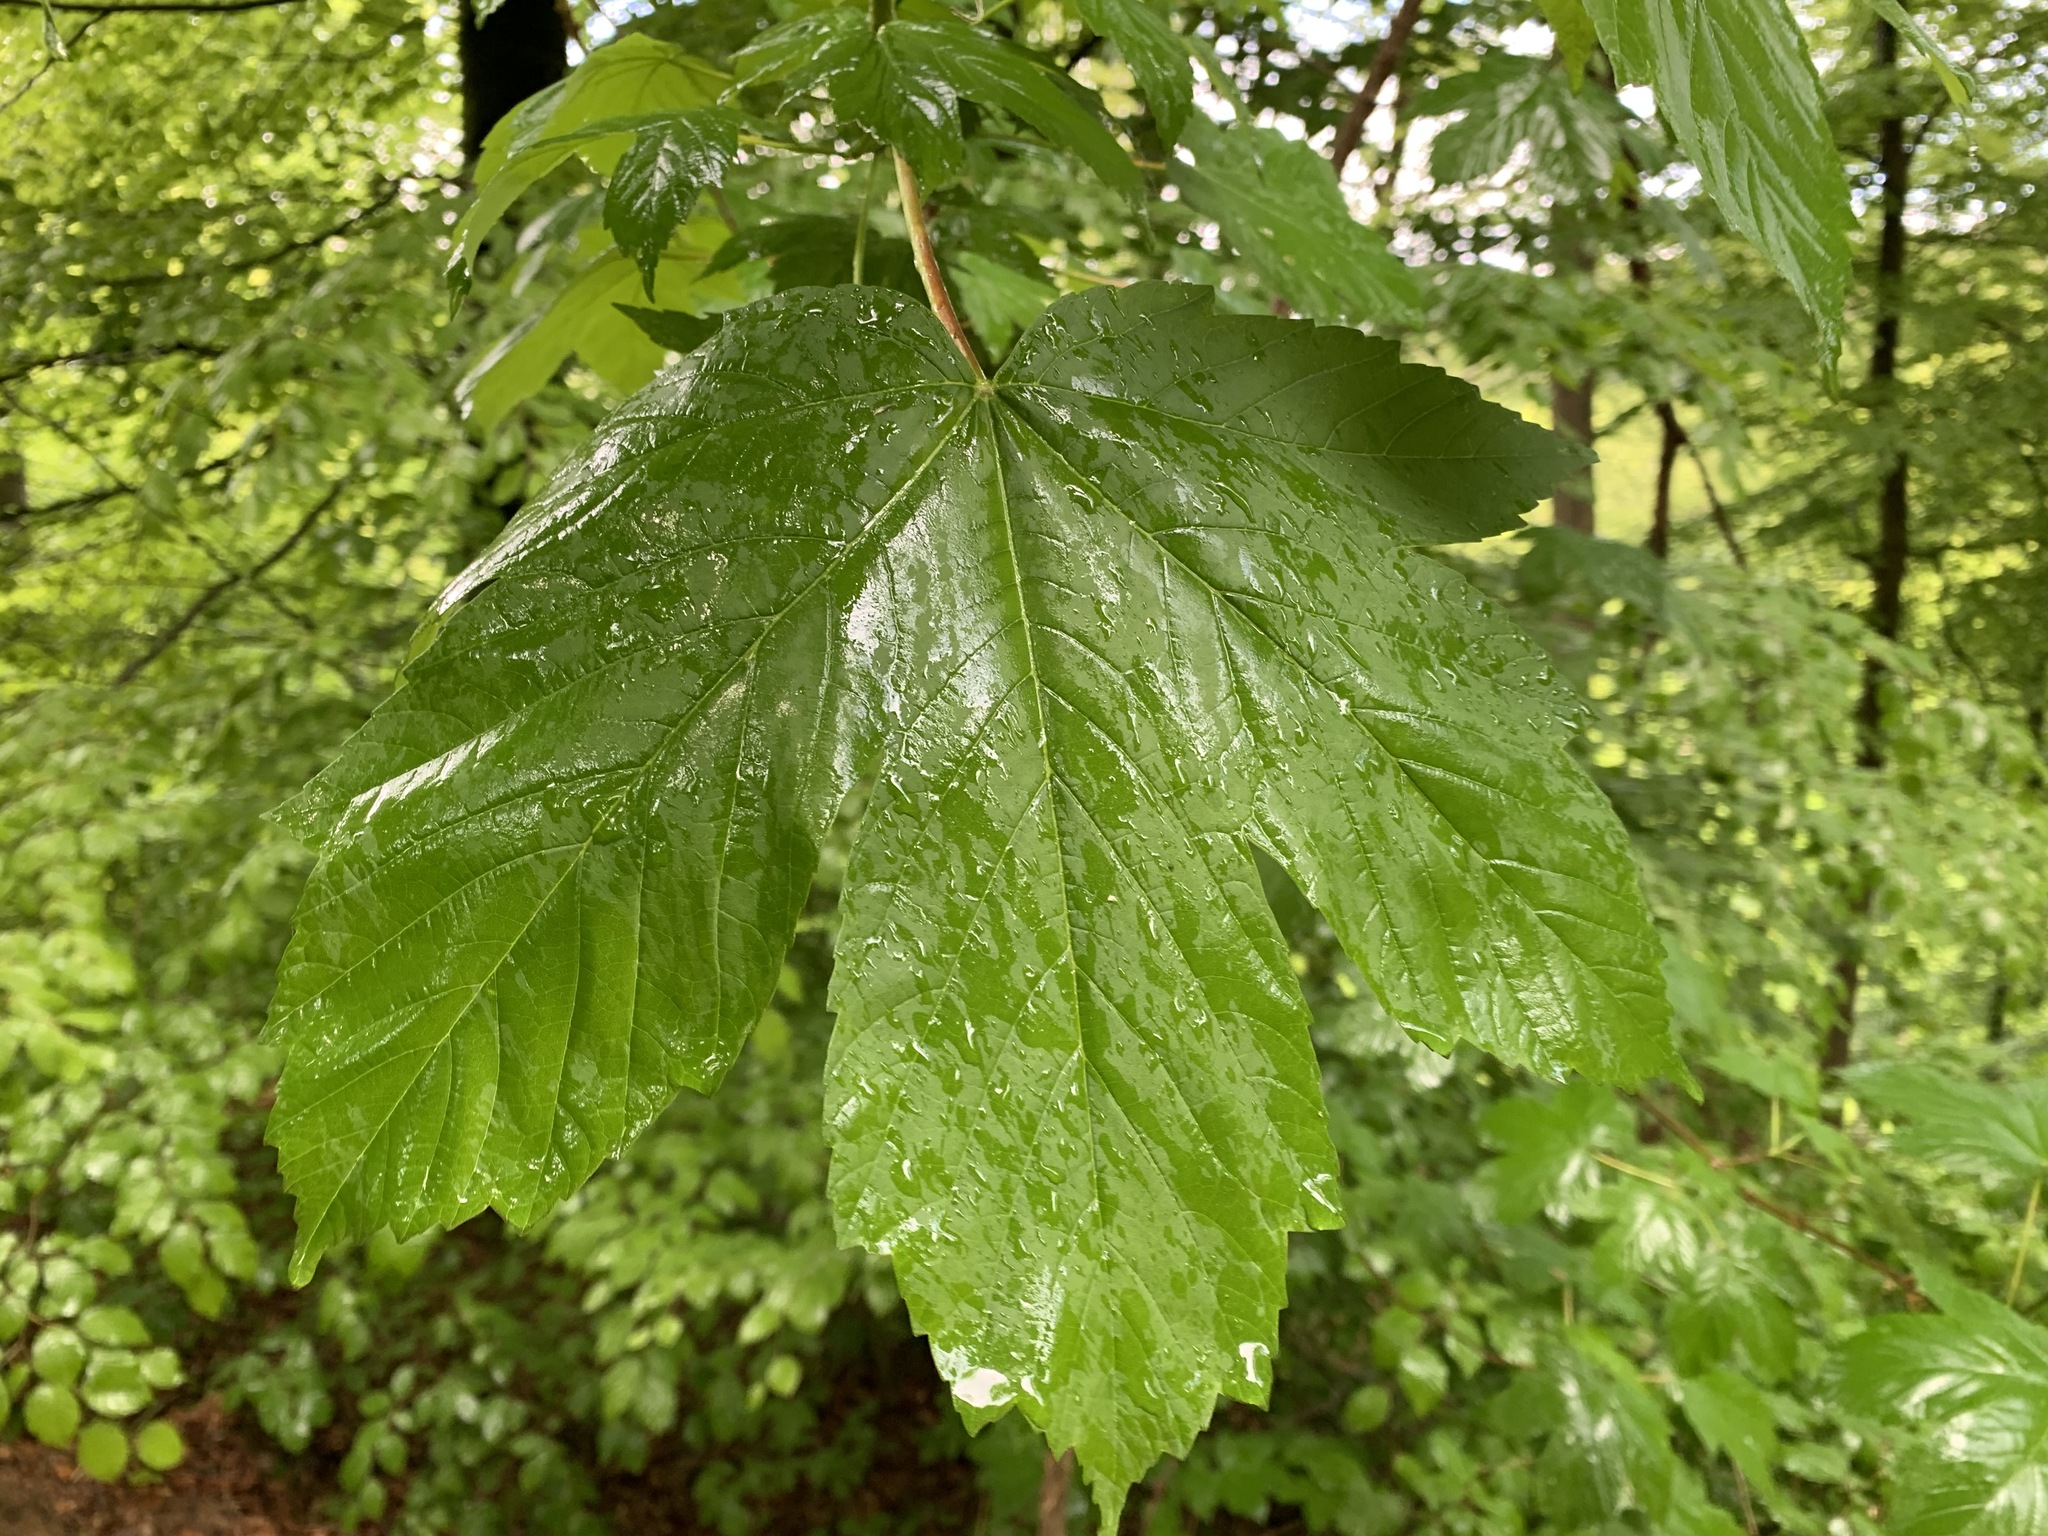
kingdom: Plantae
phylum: Tracheophyta
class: Magnoliopsida
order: Sapindales
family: Sapindaceae
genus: Acer
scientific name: Acer pseudoplatanus
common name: Sycamore
